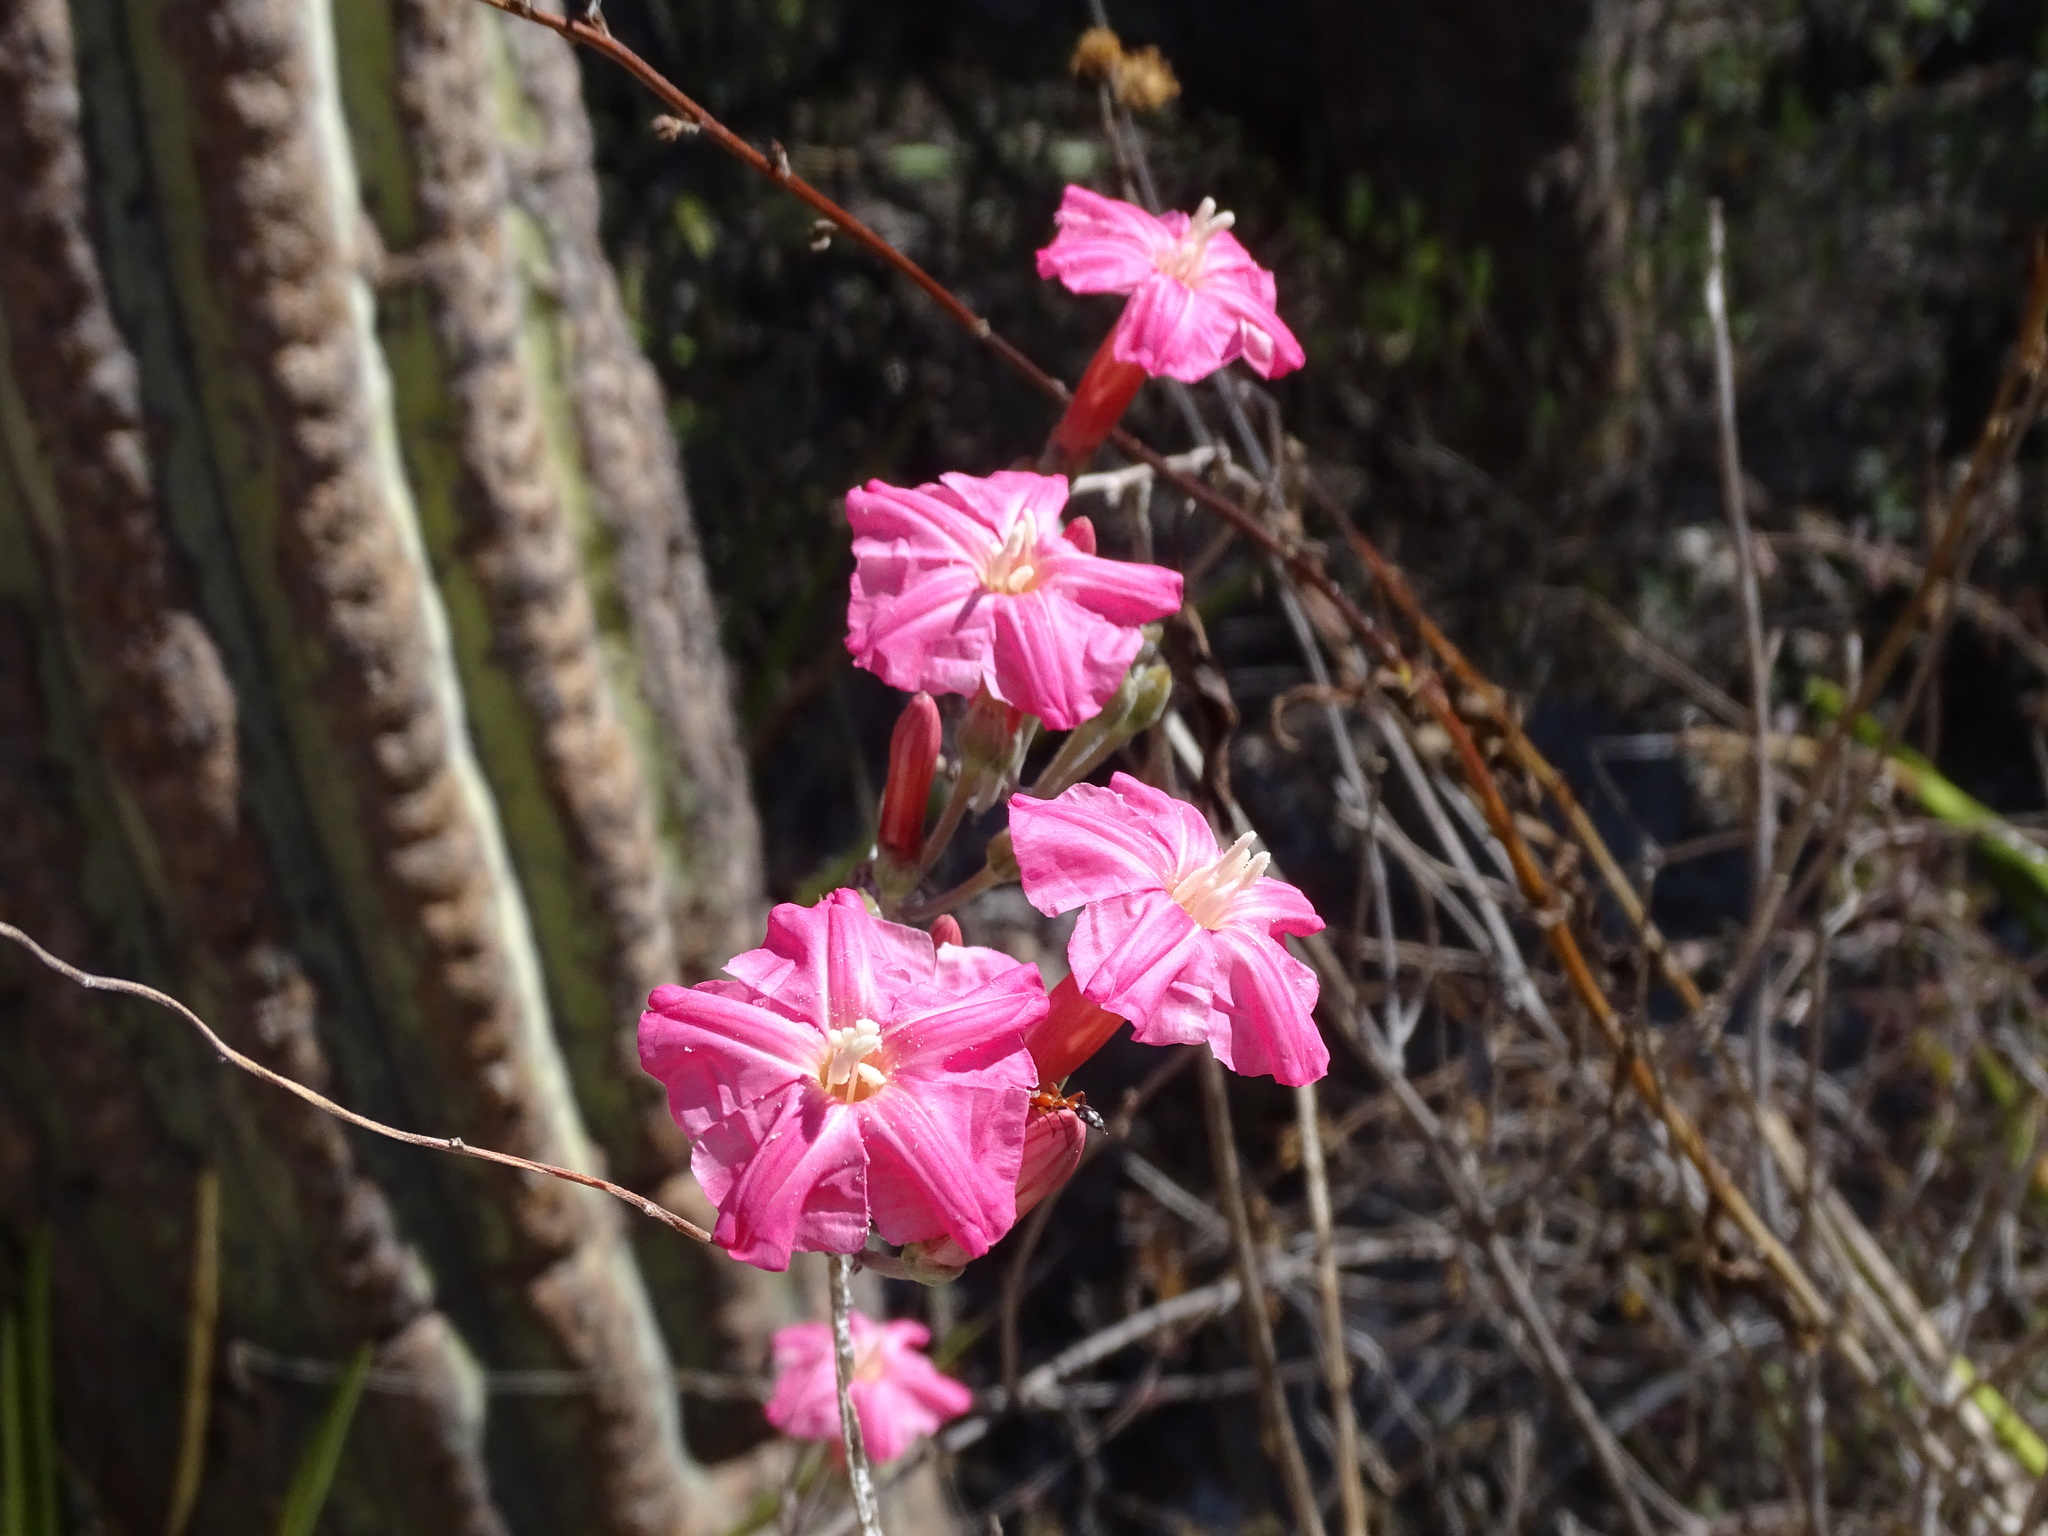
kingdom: Plantae
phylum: Tracheophyta
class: Magnoliopsida
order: Solanales
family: Convolvulaceae
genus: Ipomoea
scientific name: Ipomoea conzattii
